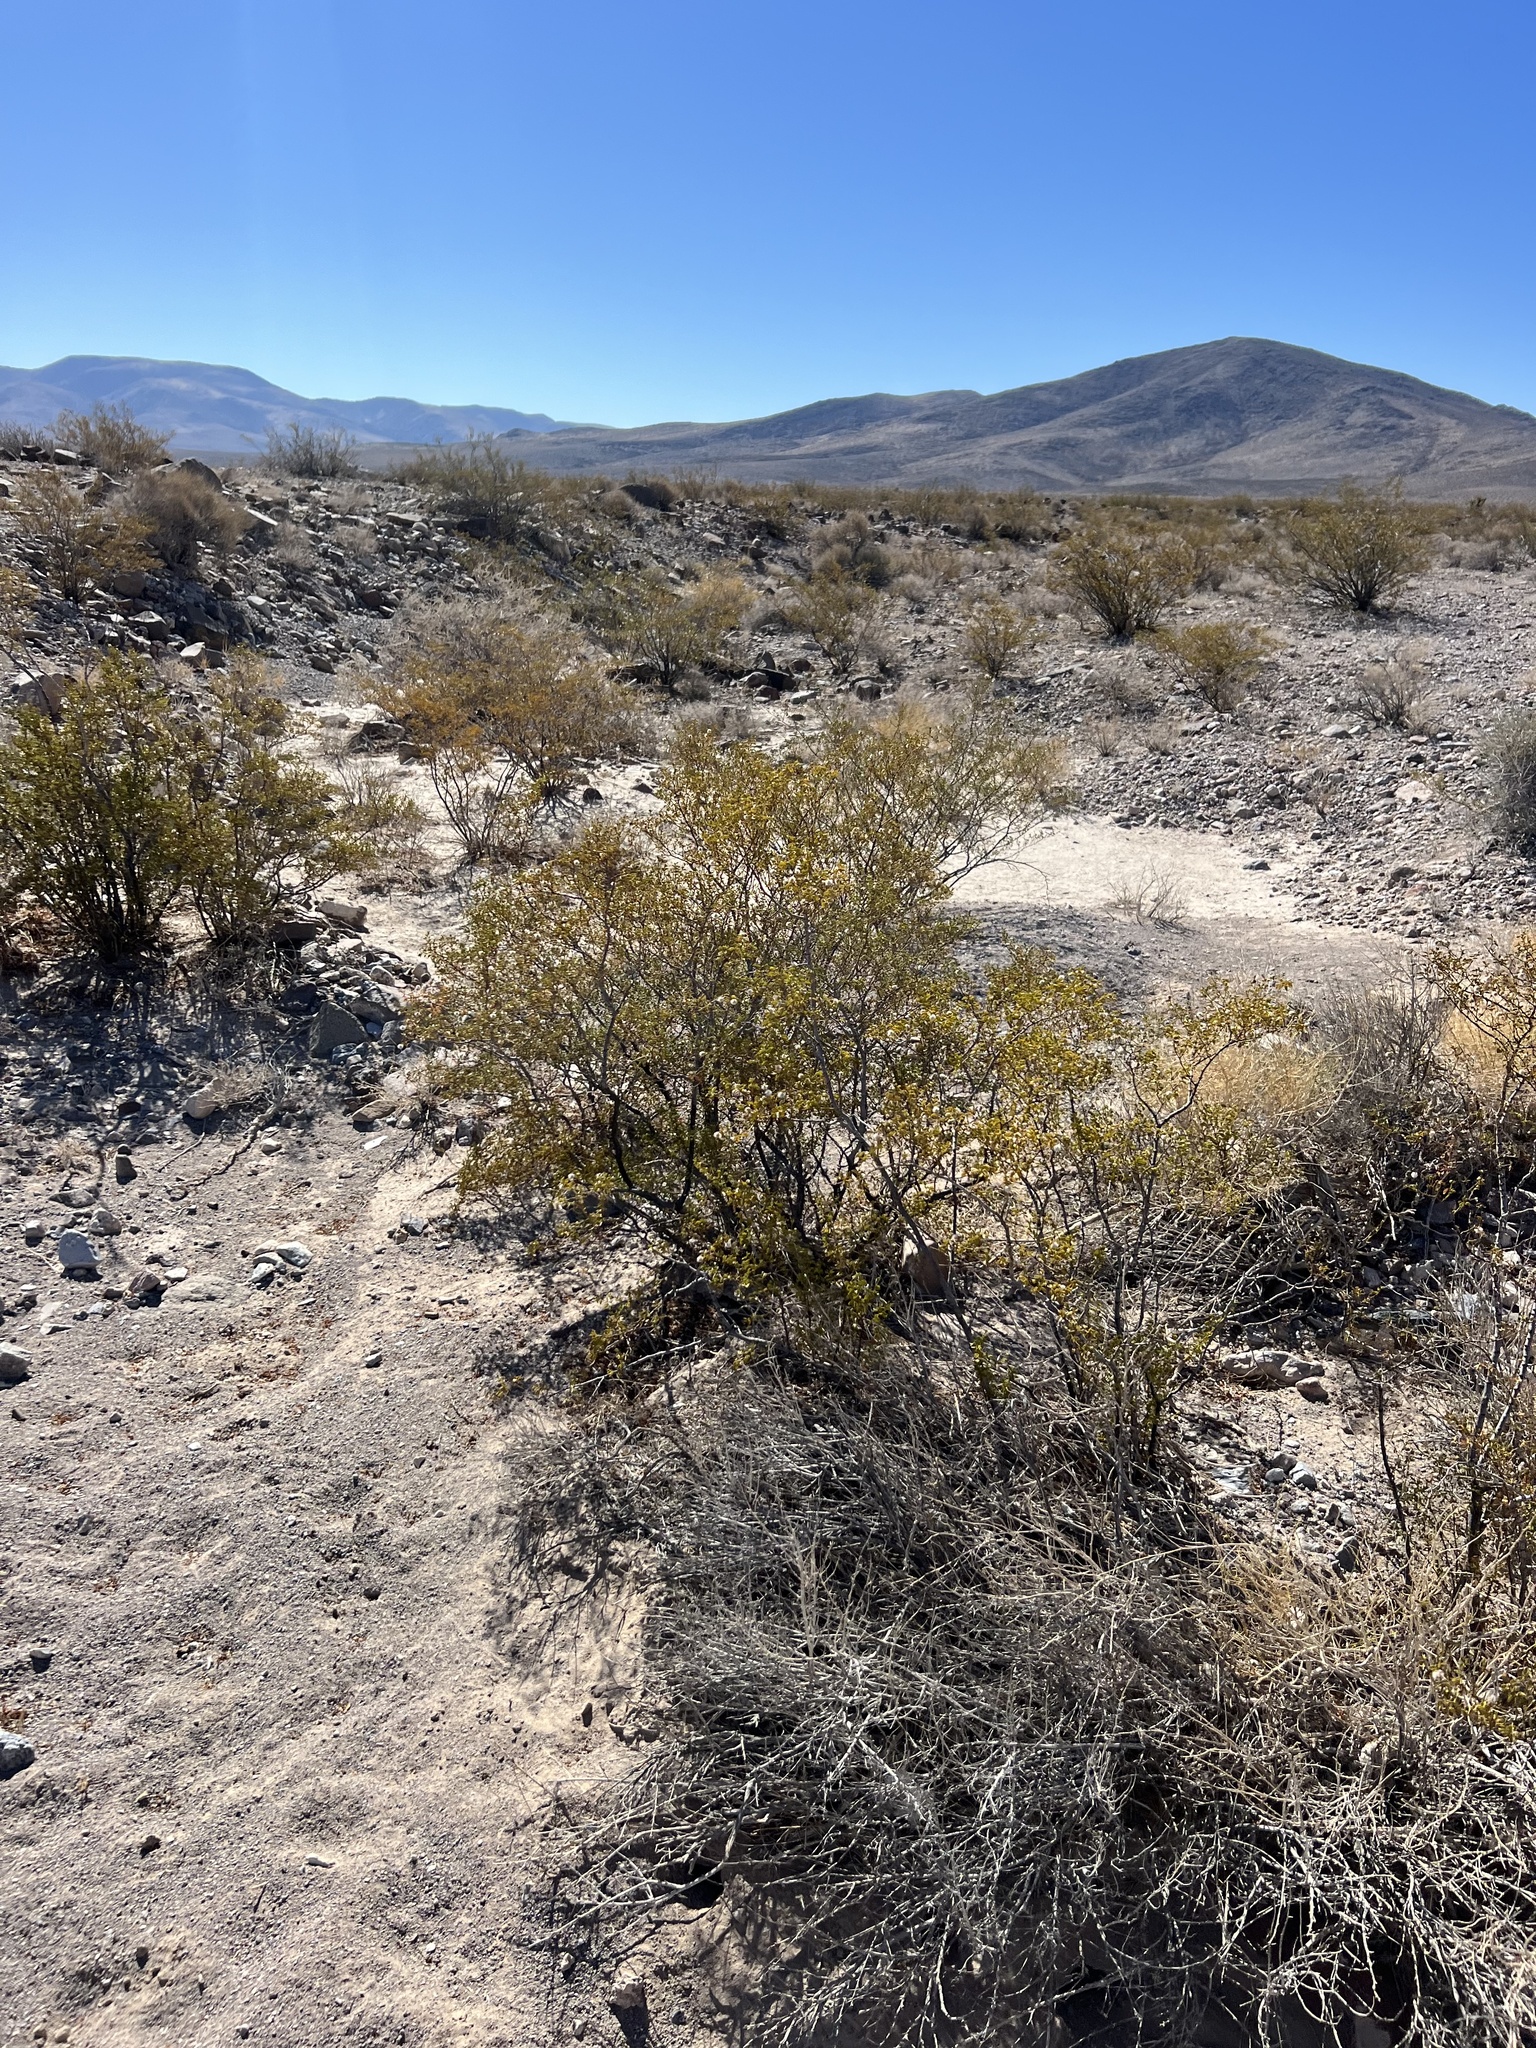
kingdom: Plantae
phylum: Tracheophyta
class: Magnoliopsida
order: Zygophyllales
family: Zygophyllaceae
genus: Larrea
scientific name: Larrea tridentata
